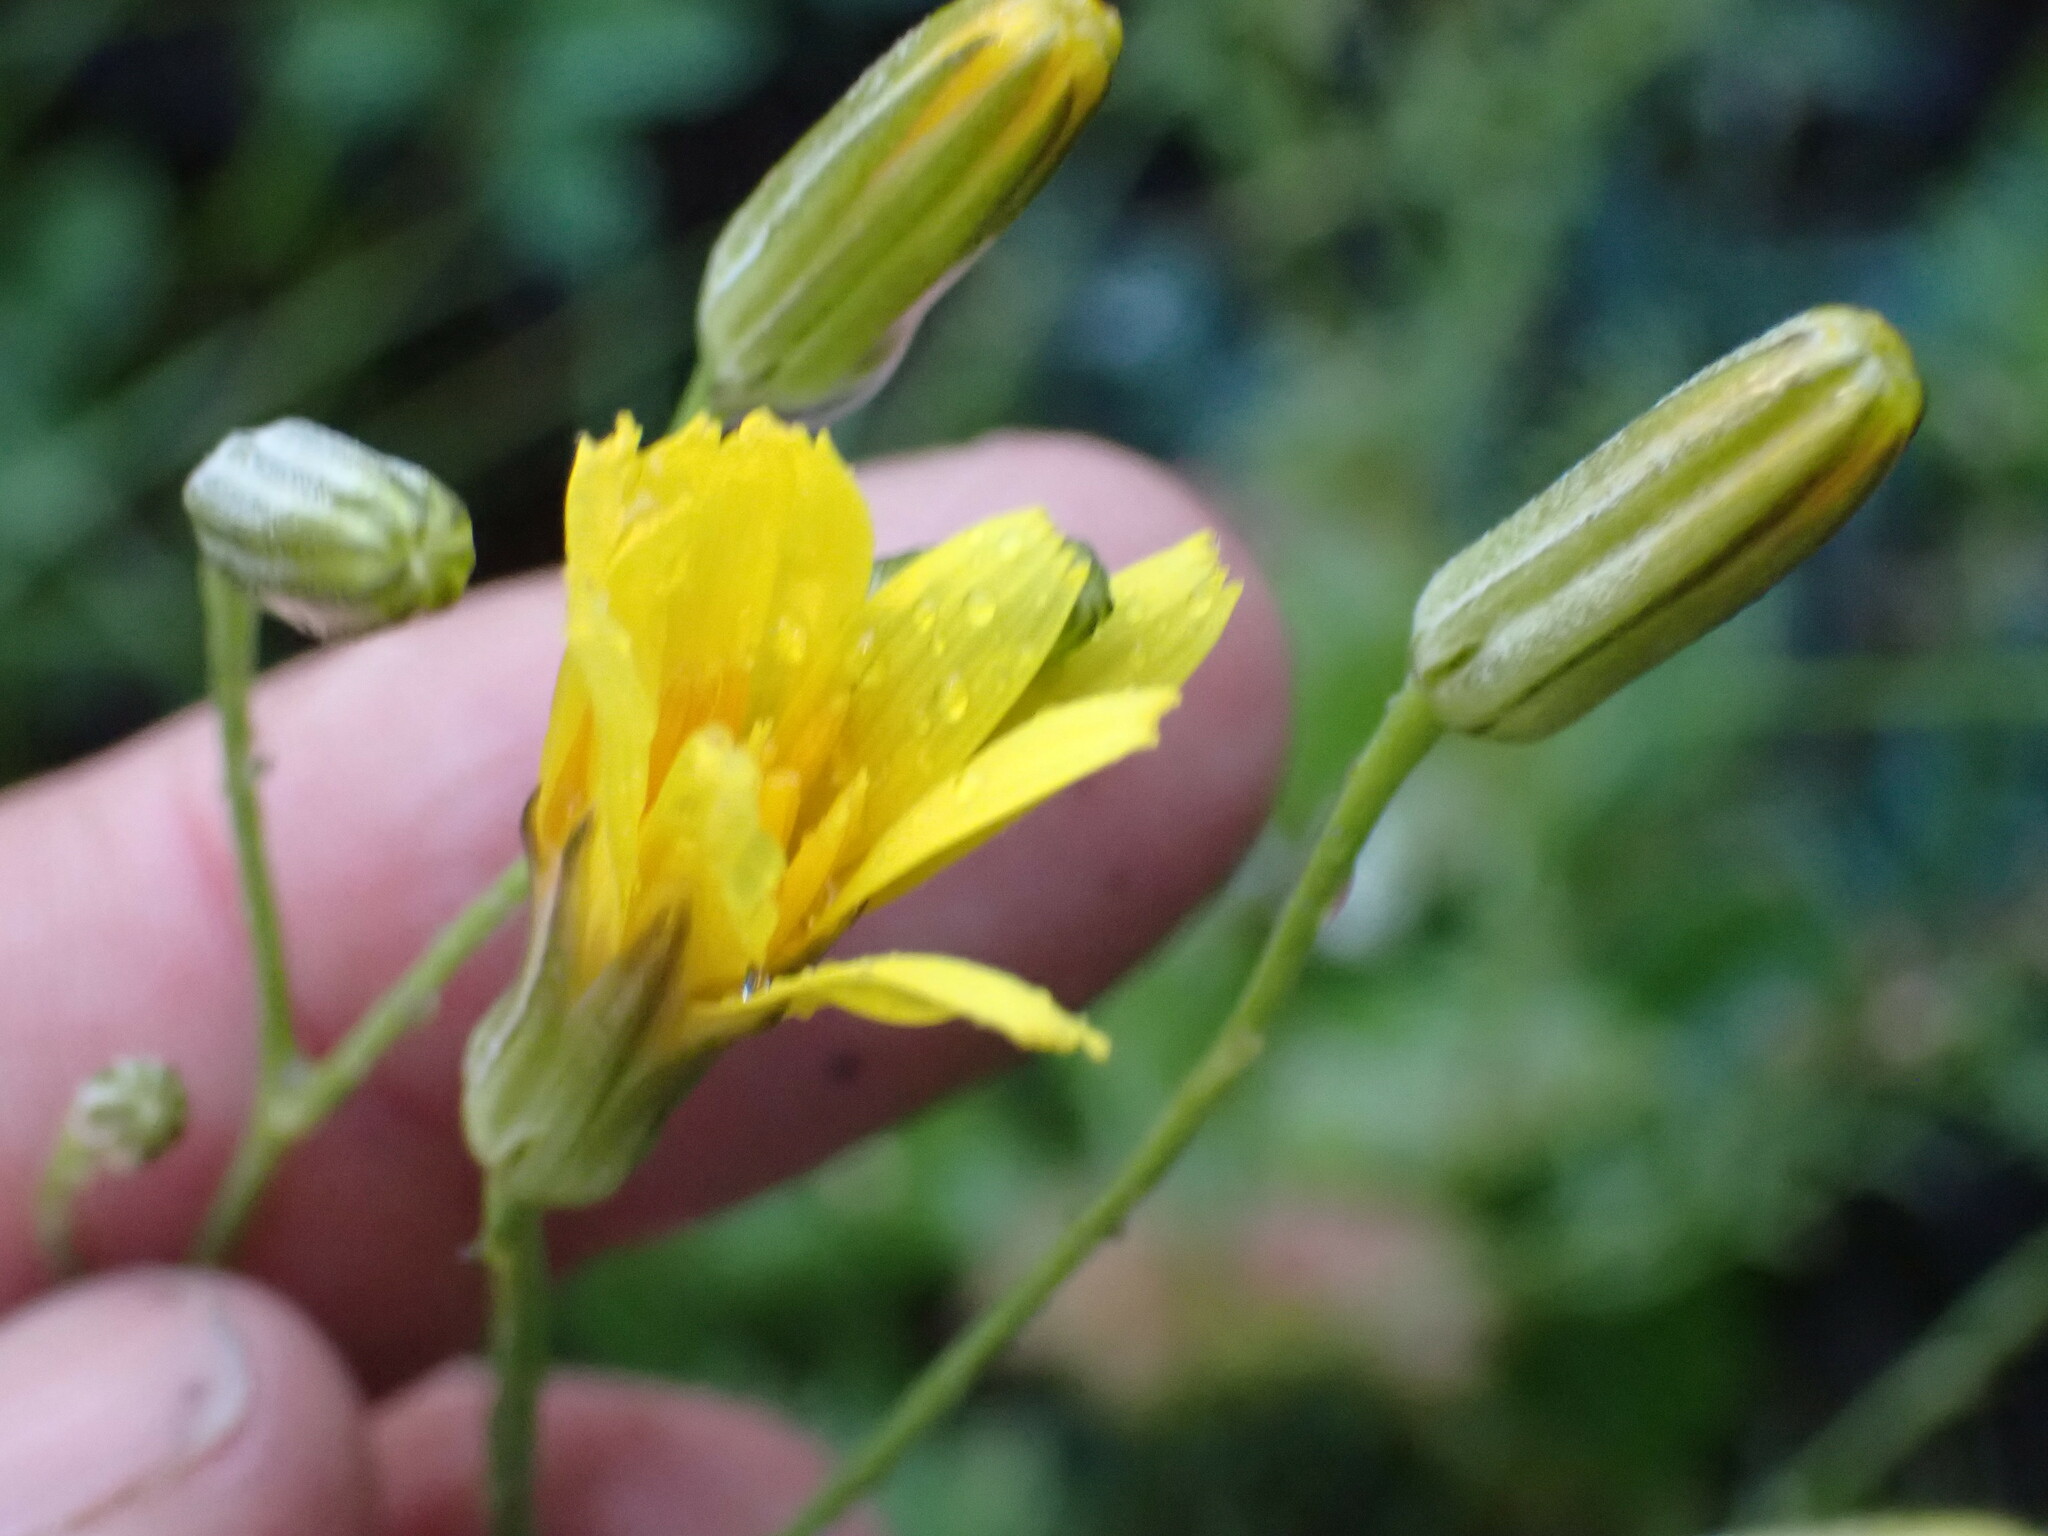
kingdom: Plantae
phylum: Tracheophyta
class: Magnoliopsida
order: Asterales
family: Asteraceae
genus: Crepis
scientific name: Crepis atribarba
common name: Dark hawk's-beard
